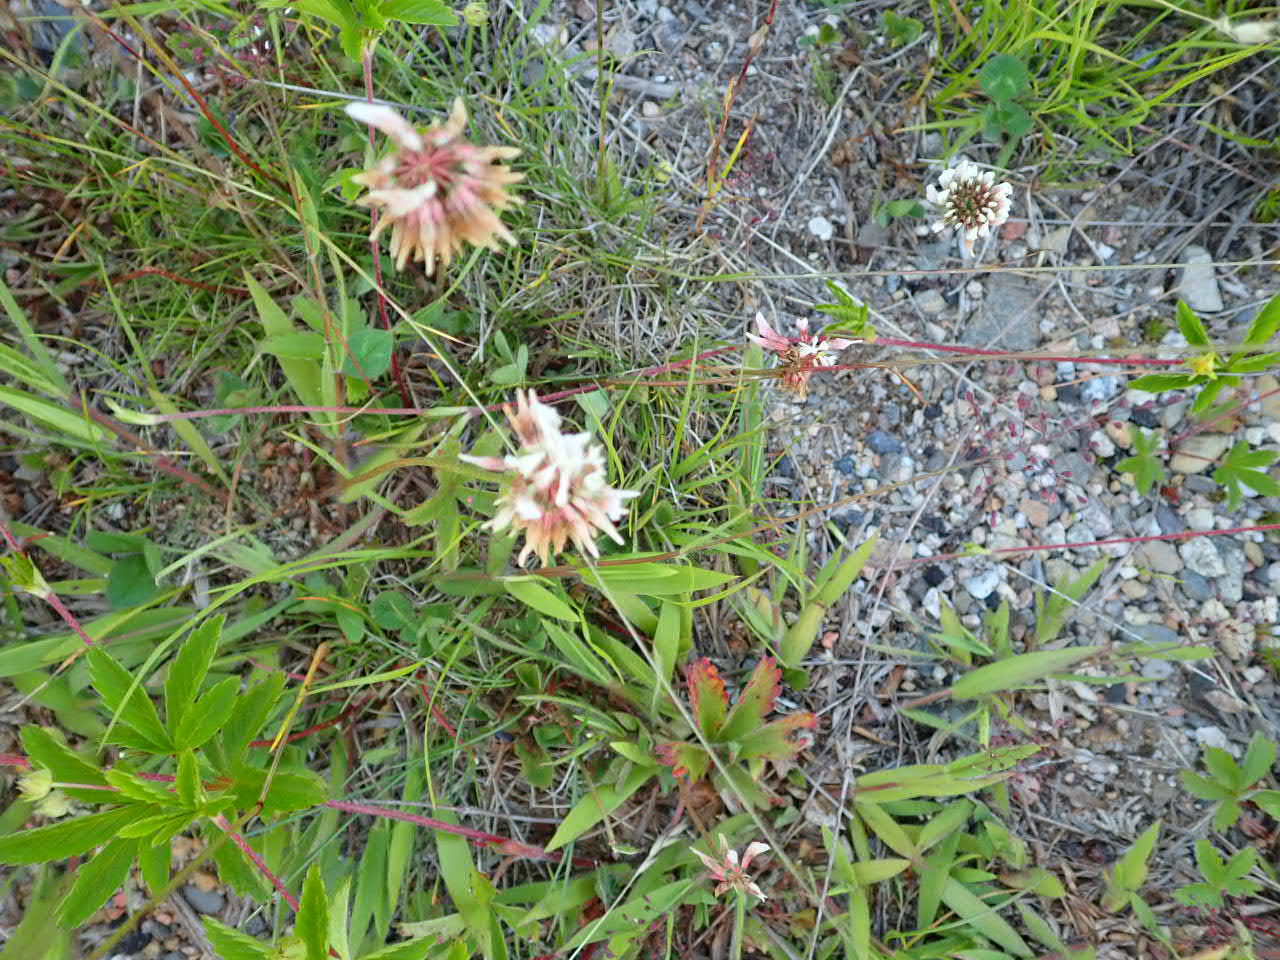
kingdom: Plantae
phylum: Tracheophyta
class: Magnoliopsida
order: Fabales
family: Fabaceae
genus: Trifolium
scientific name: Trifolium repens
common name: White clover
